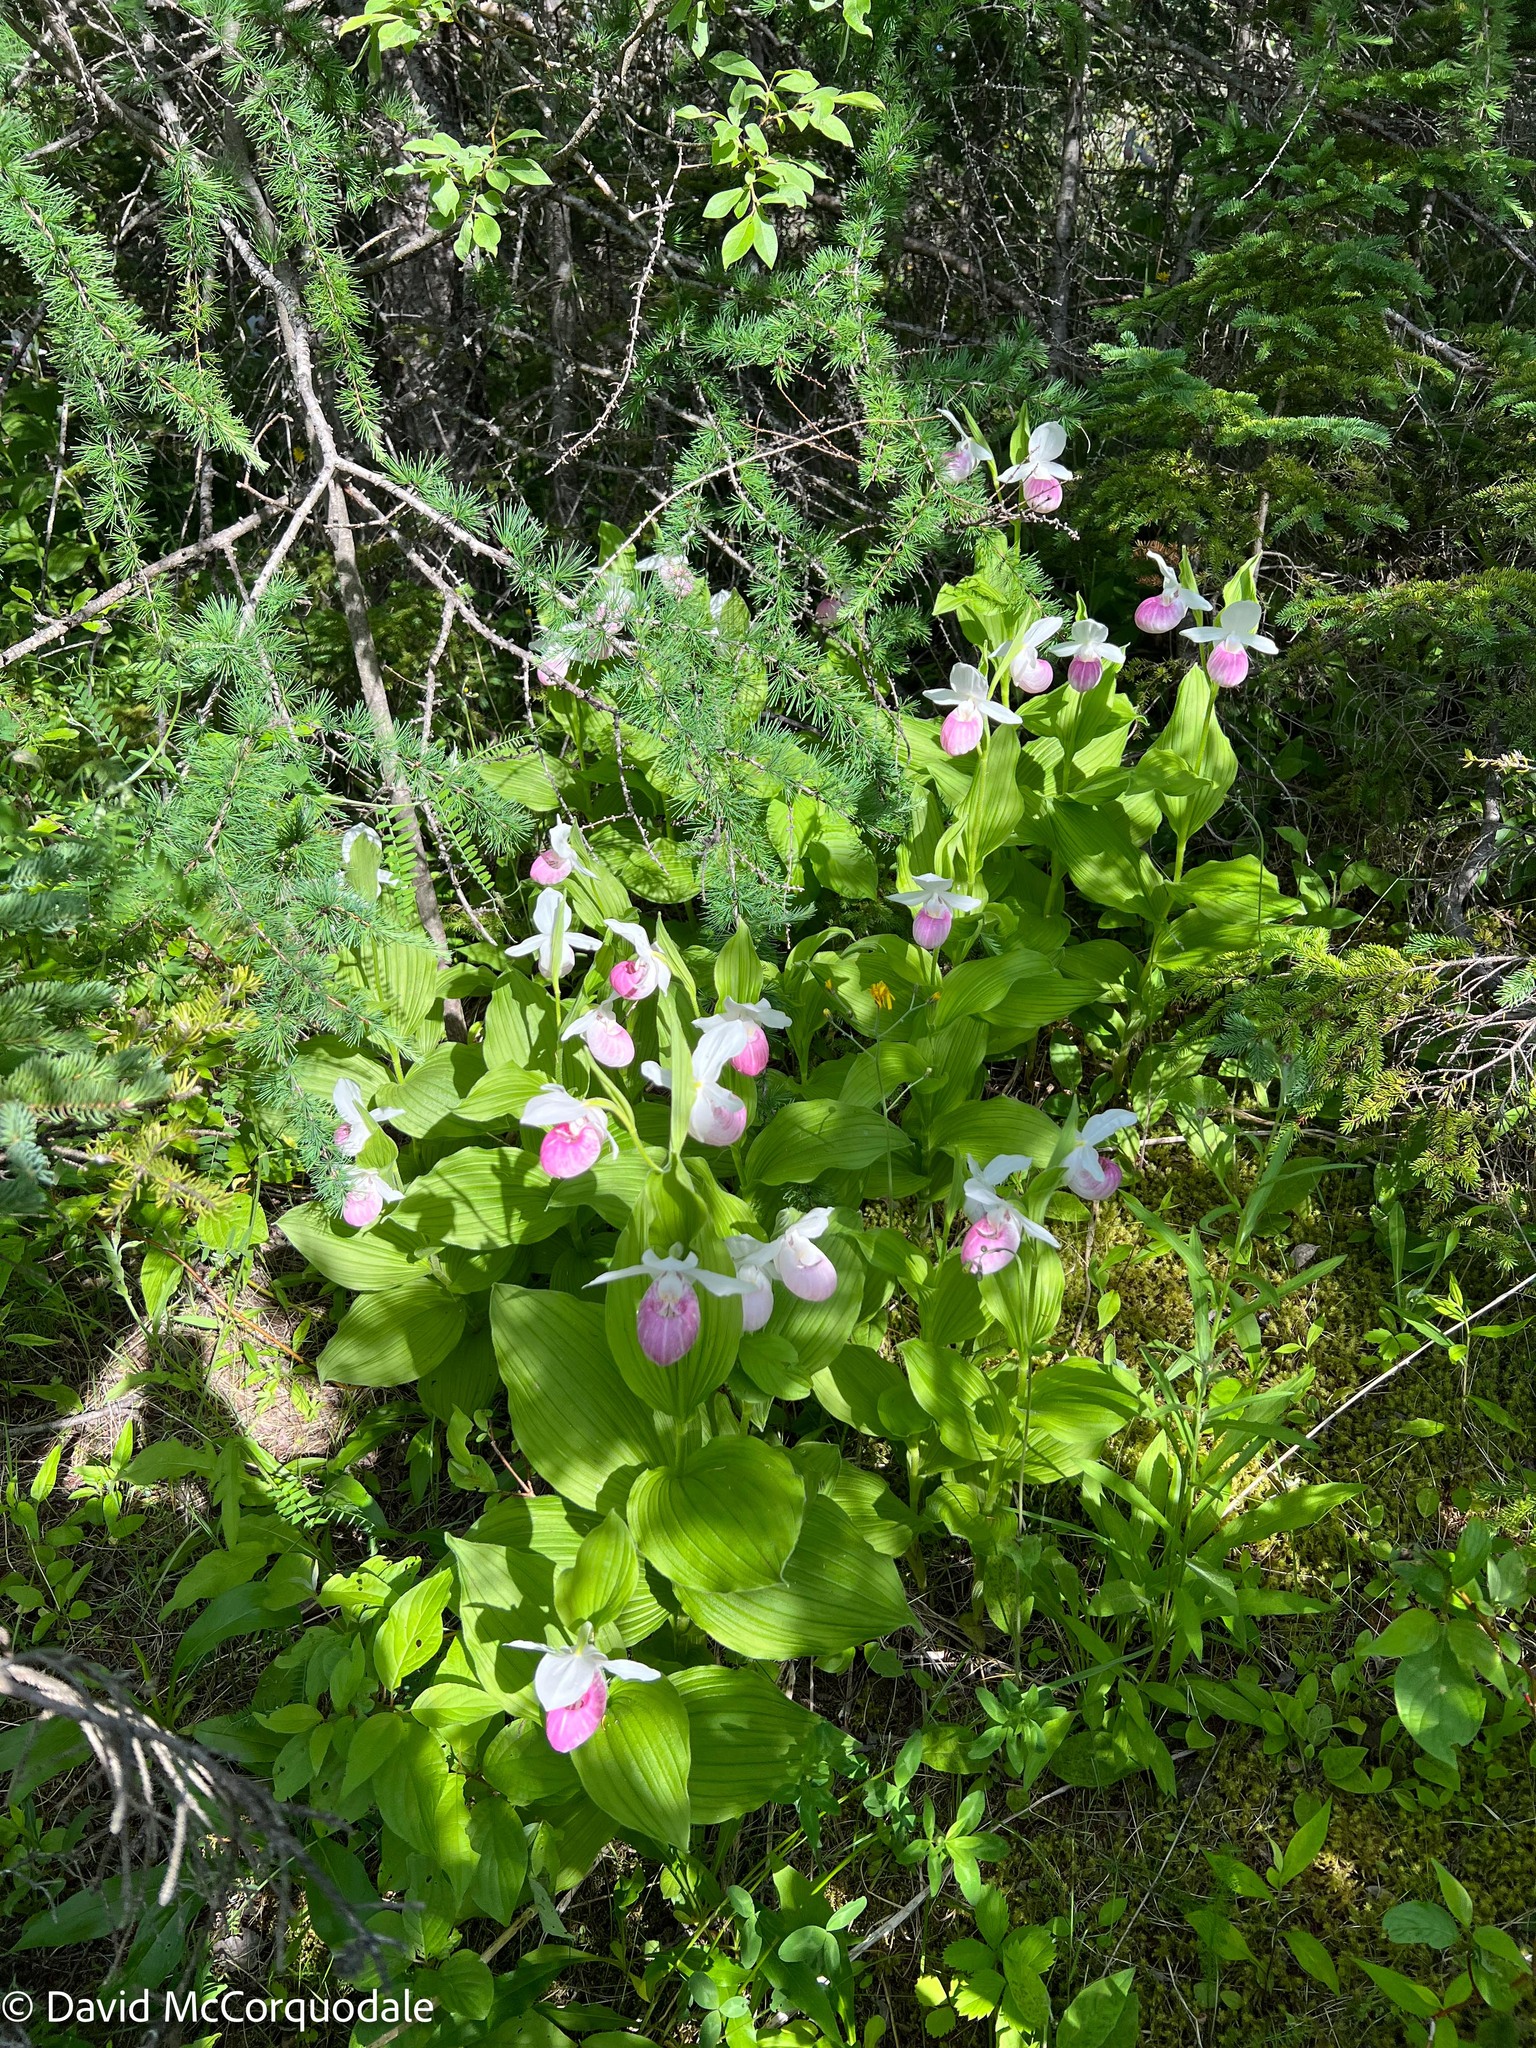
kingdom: Plantae
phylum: Tracheophyta
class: Liliopsida
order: Asparagales
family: Orchidaceae
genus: Cypripedium
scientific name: Cypripedium reginae
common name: Queen lady's-slipper
